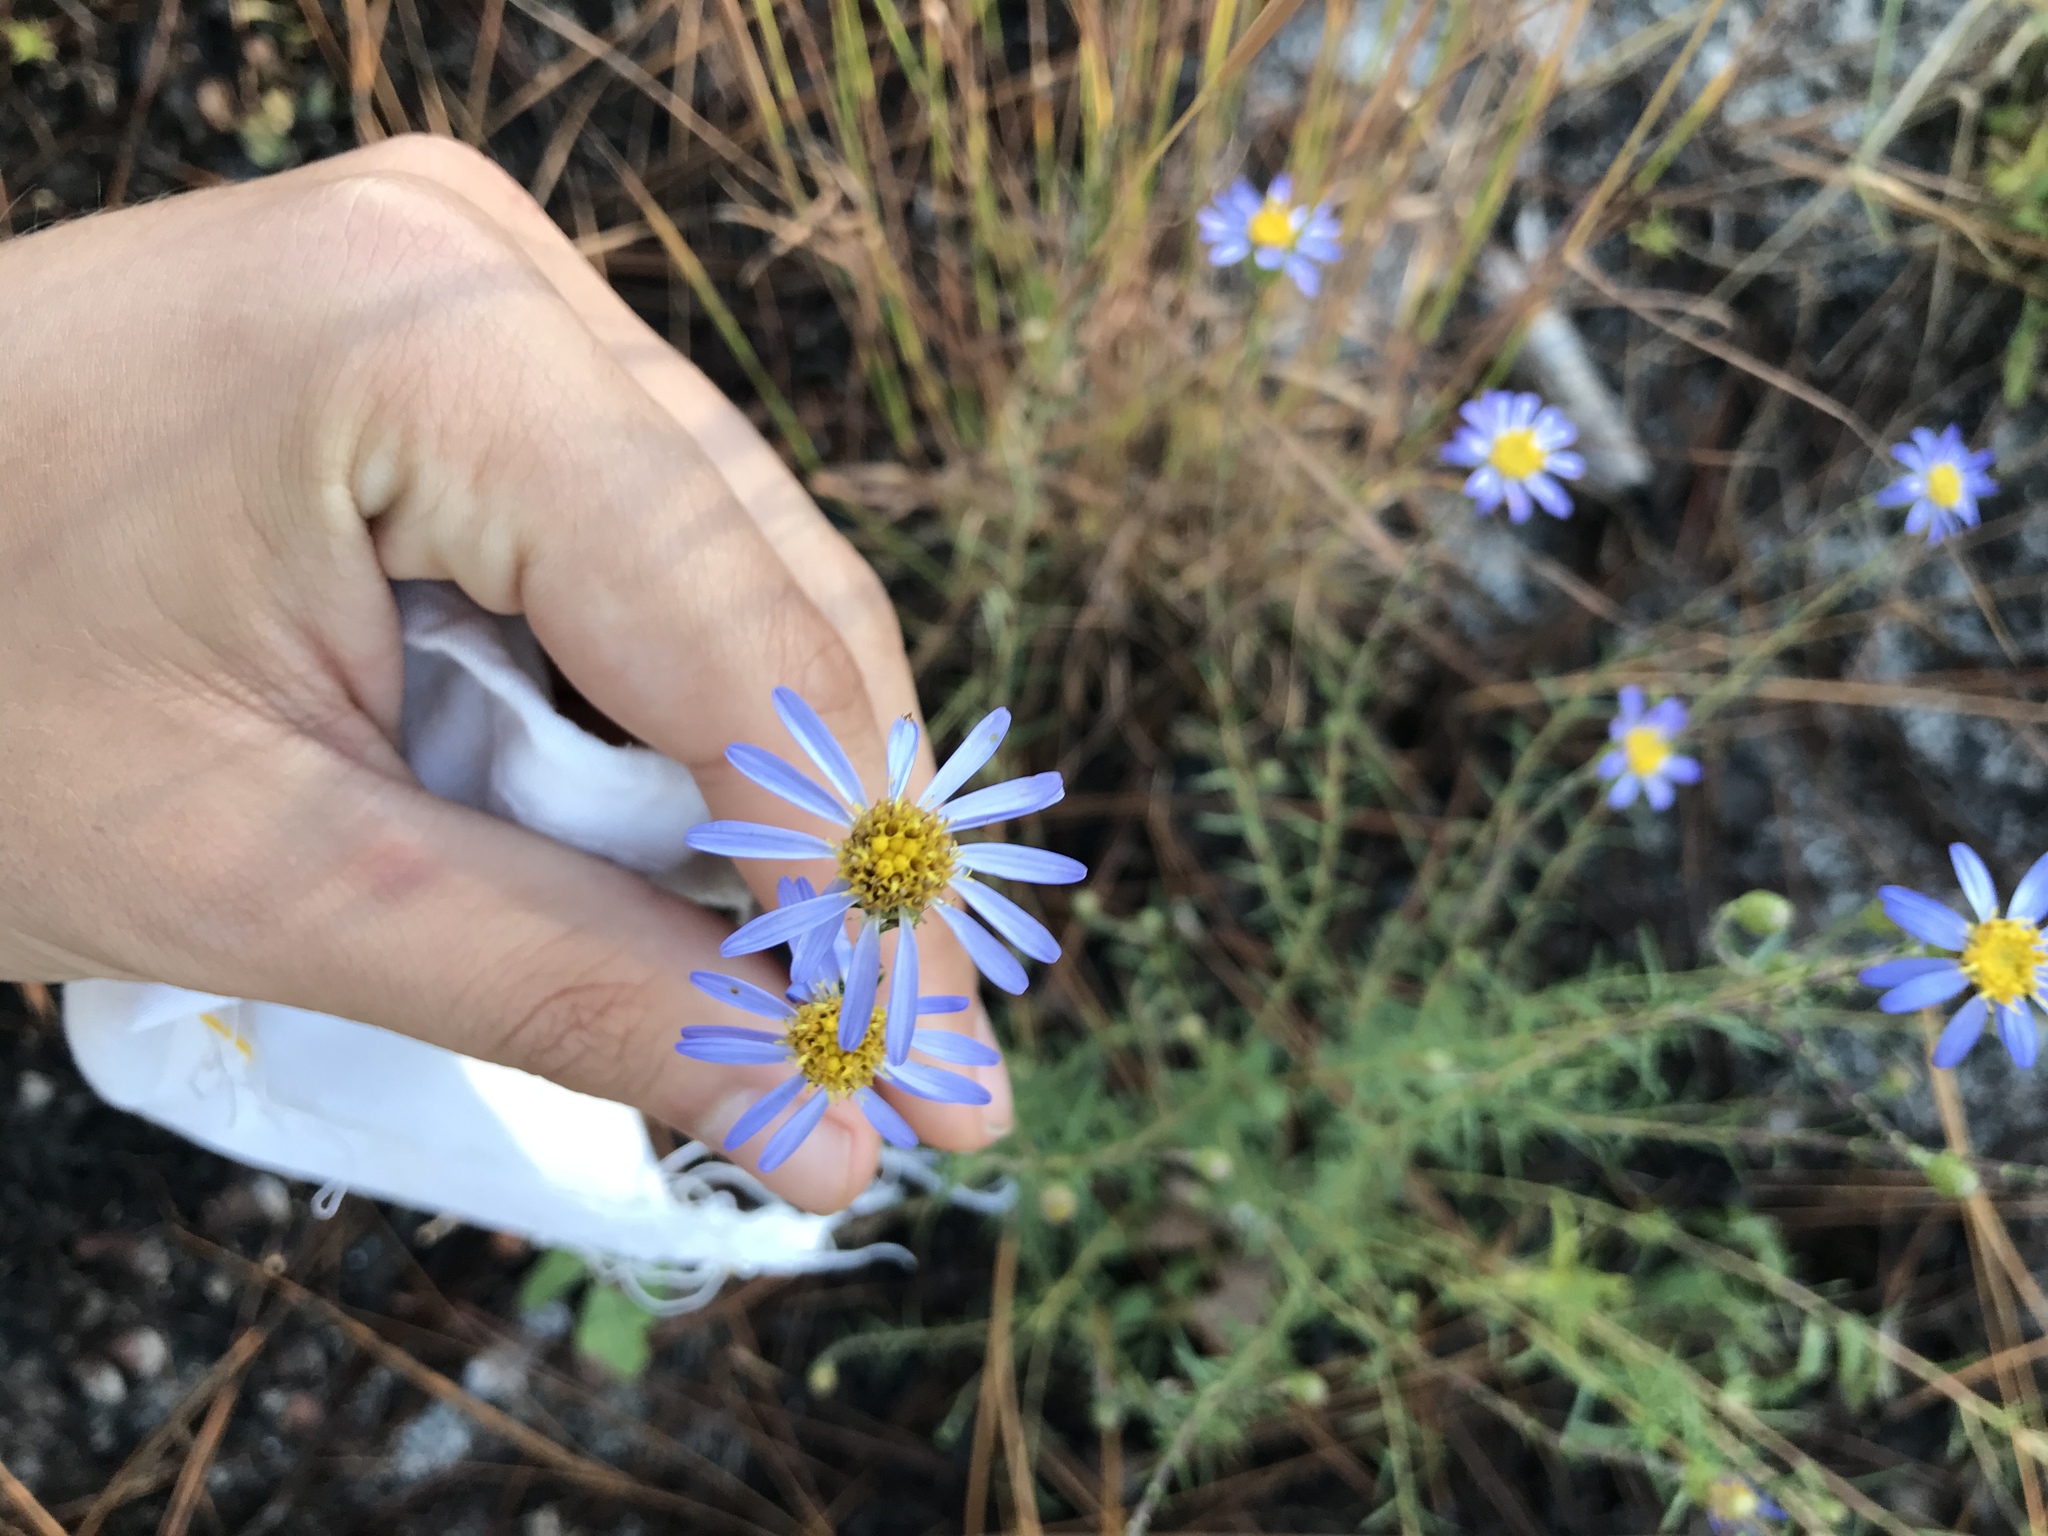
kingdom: Plantae
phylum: Tracheophyta
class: Magnoliopsida
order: Asterales
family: Asteraceae
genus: Ionactis
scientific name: Ionactis linariifolia
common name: Flax-leaf aster
